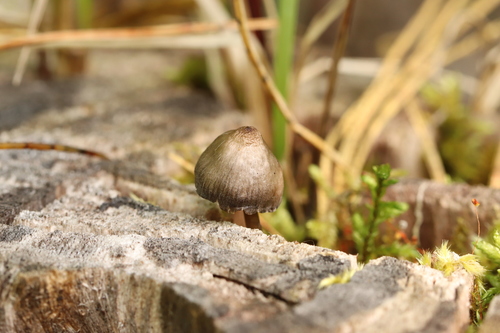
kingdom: Fungi
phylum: Basidiomycota
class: Agaricomycetes
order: Agaricales
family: Mycenaceae
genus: Mycena
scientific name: Mycena
